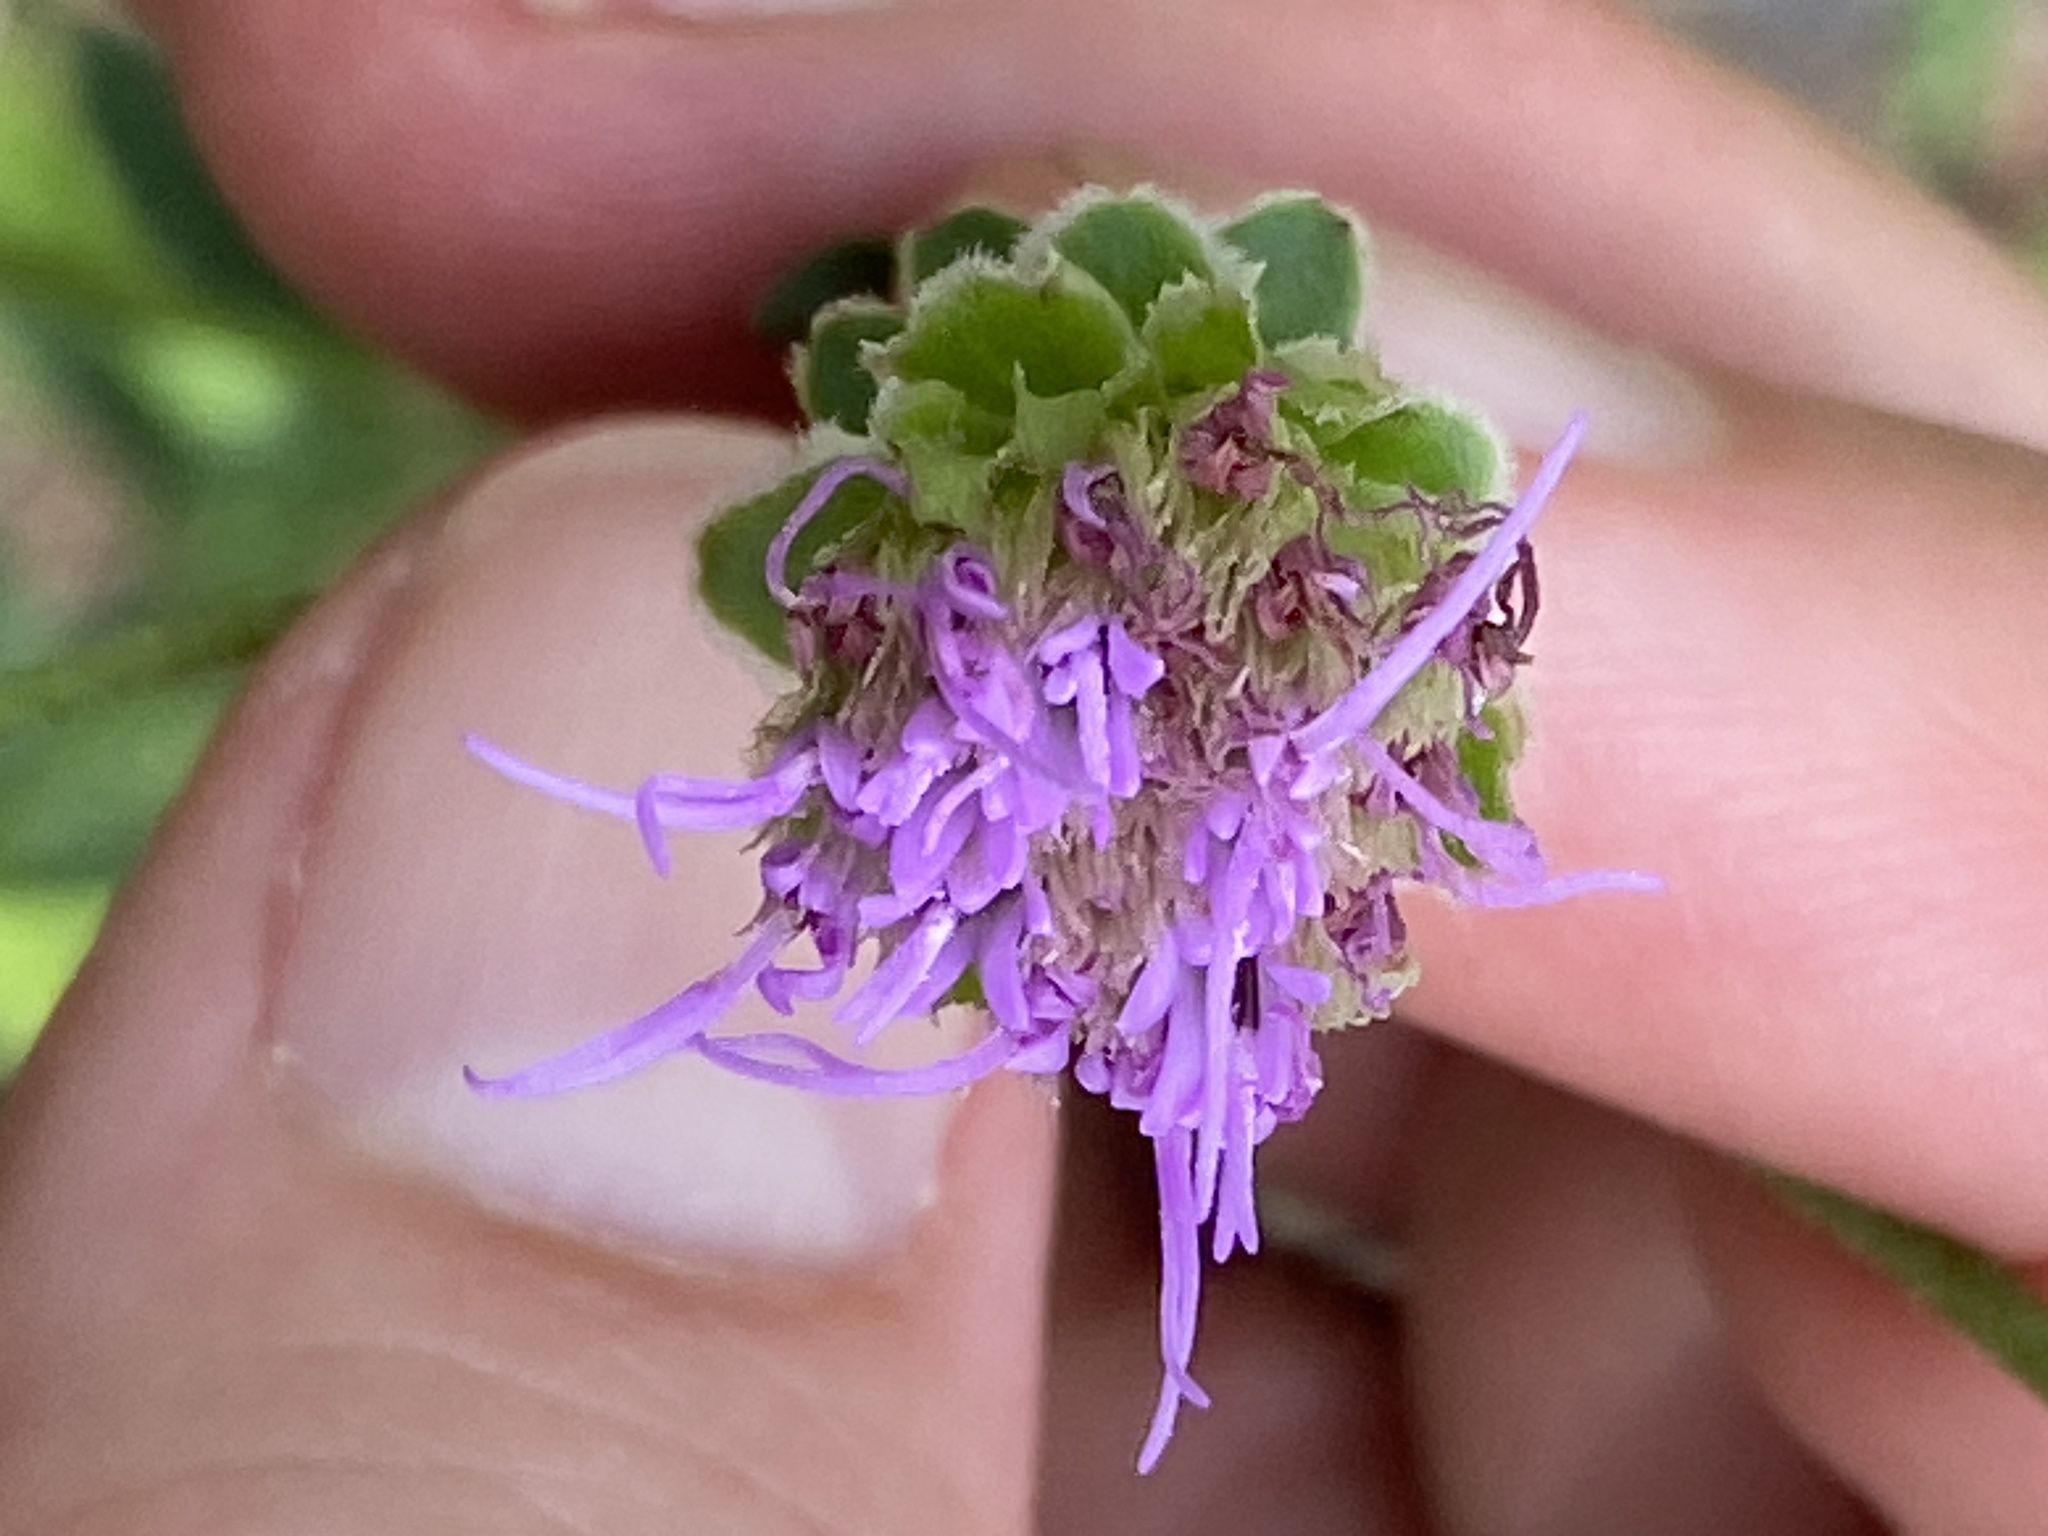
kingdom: Plantae
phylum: Tracheophyta
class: Magnoliopsida
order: Asterales
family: Asteraceae
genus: Carphephorus
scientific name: Carphephorus bellidifolius
